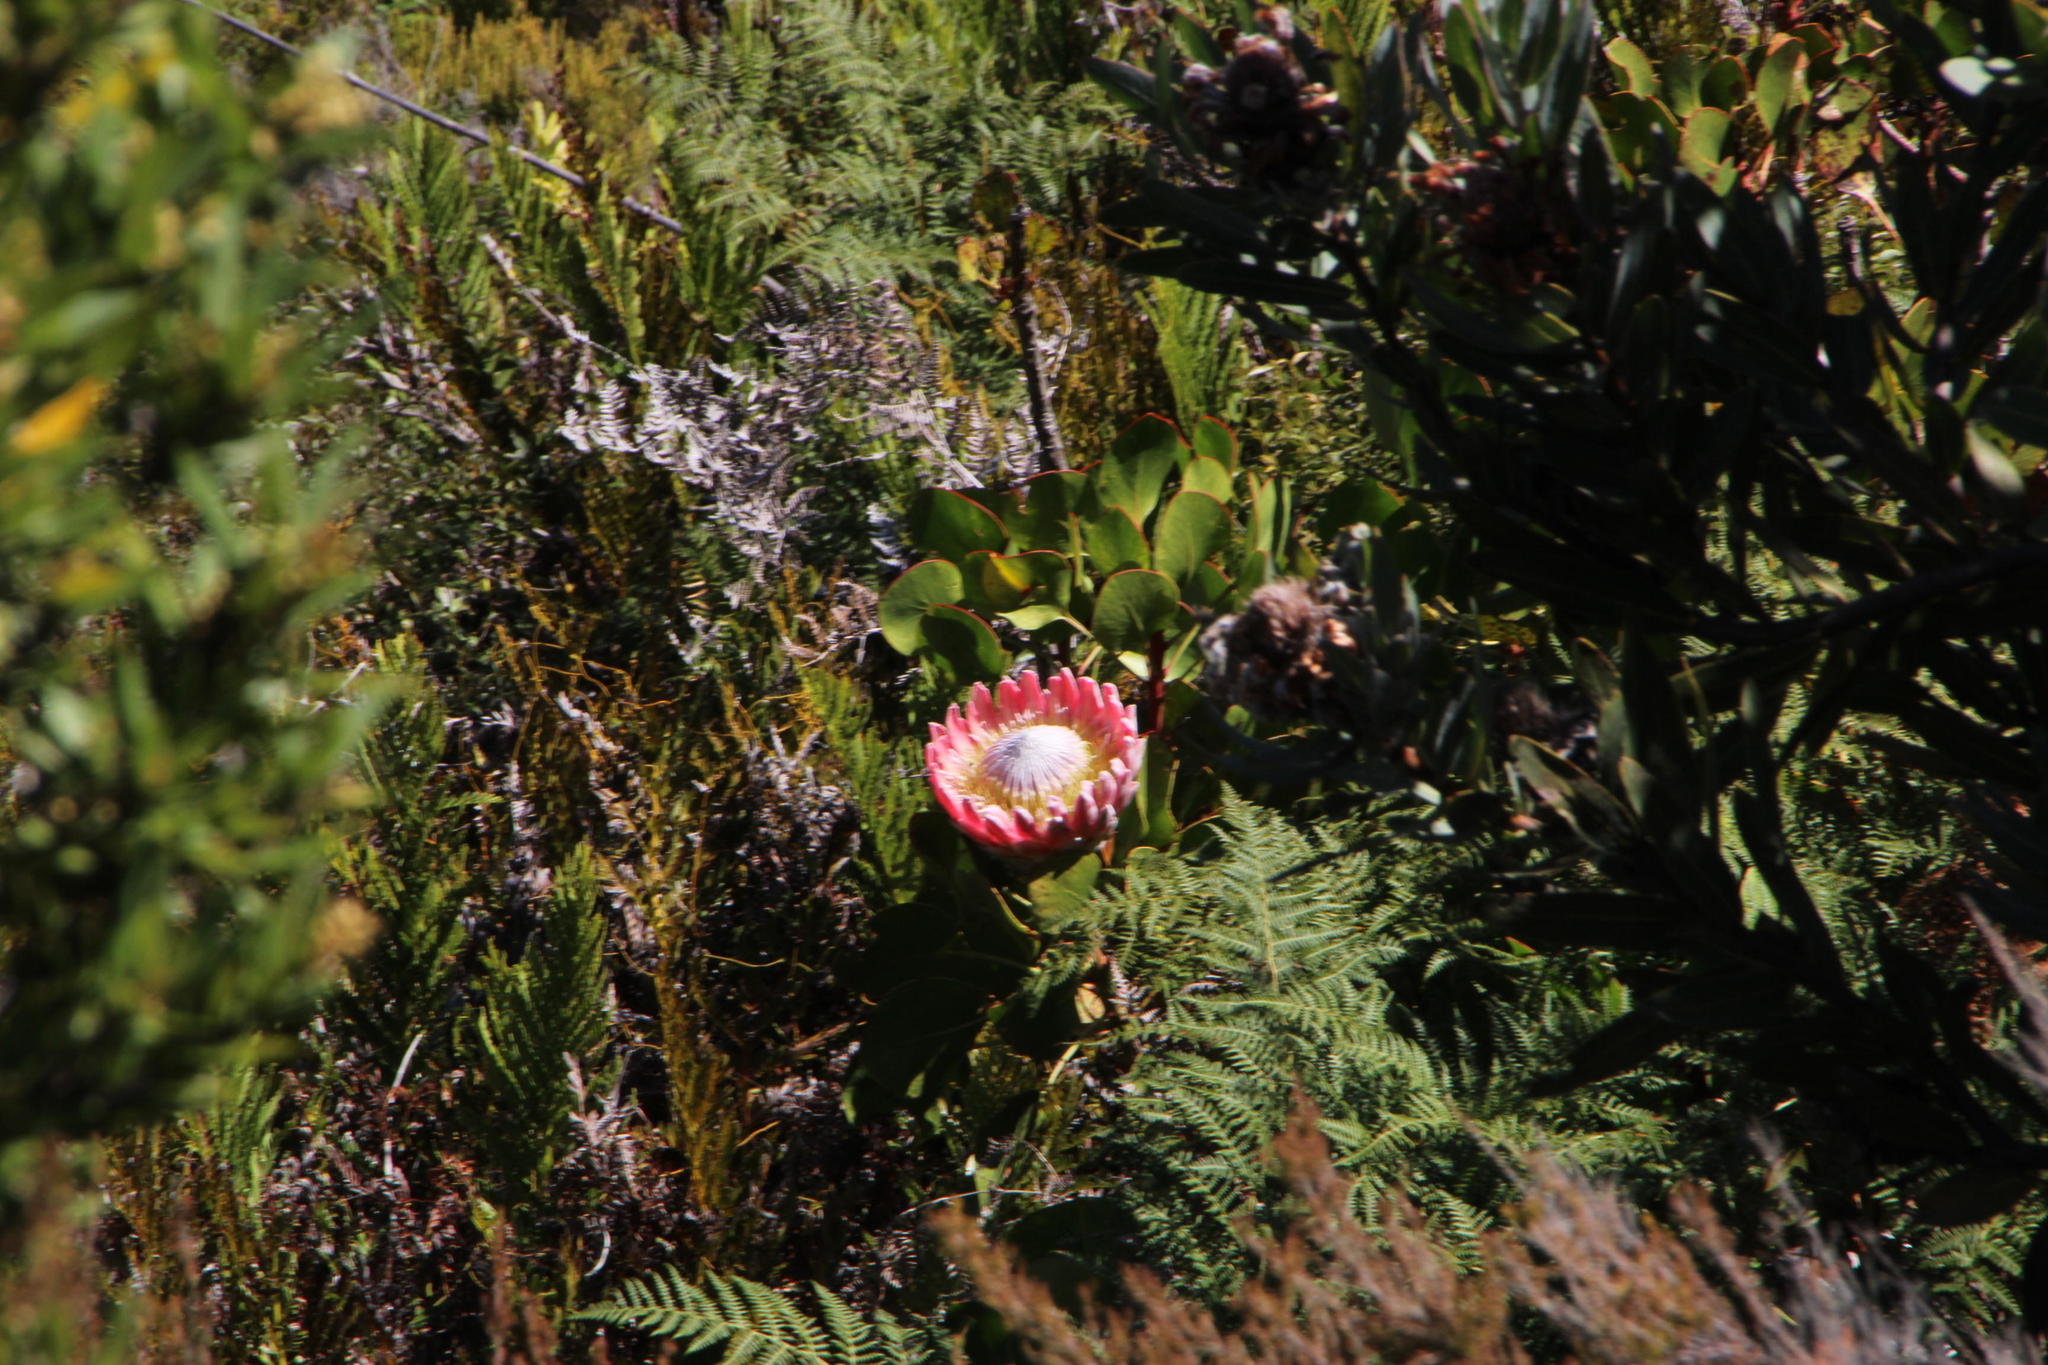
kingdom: Plantae
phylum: Tracheophyta
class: Magnoliopsida
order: Proteales
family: Proteaceae
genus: Protea
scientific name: Protea cynaroides
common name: King protea
